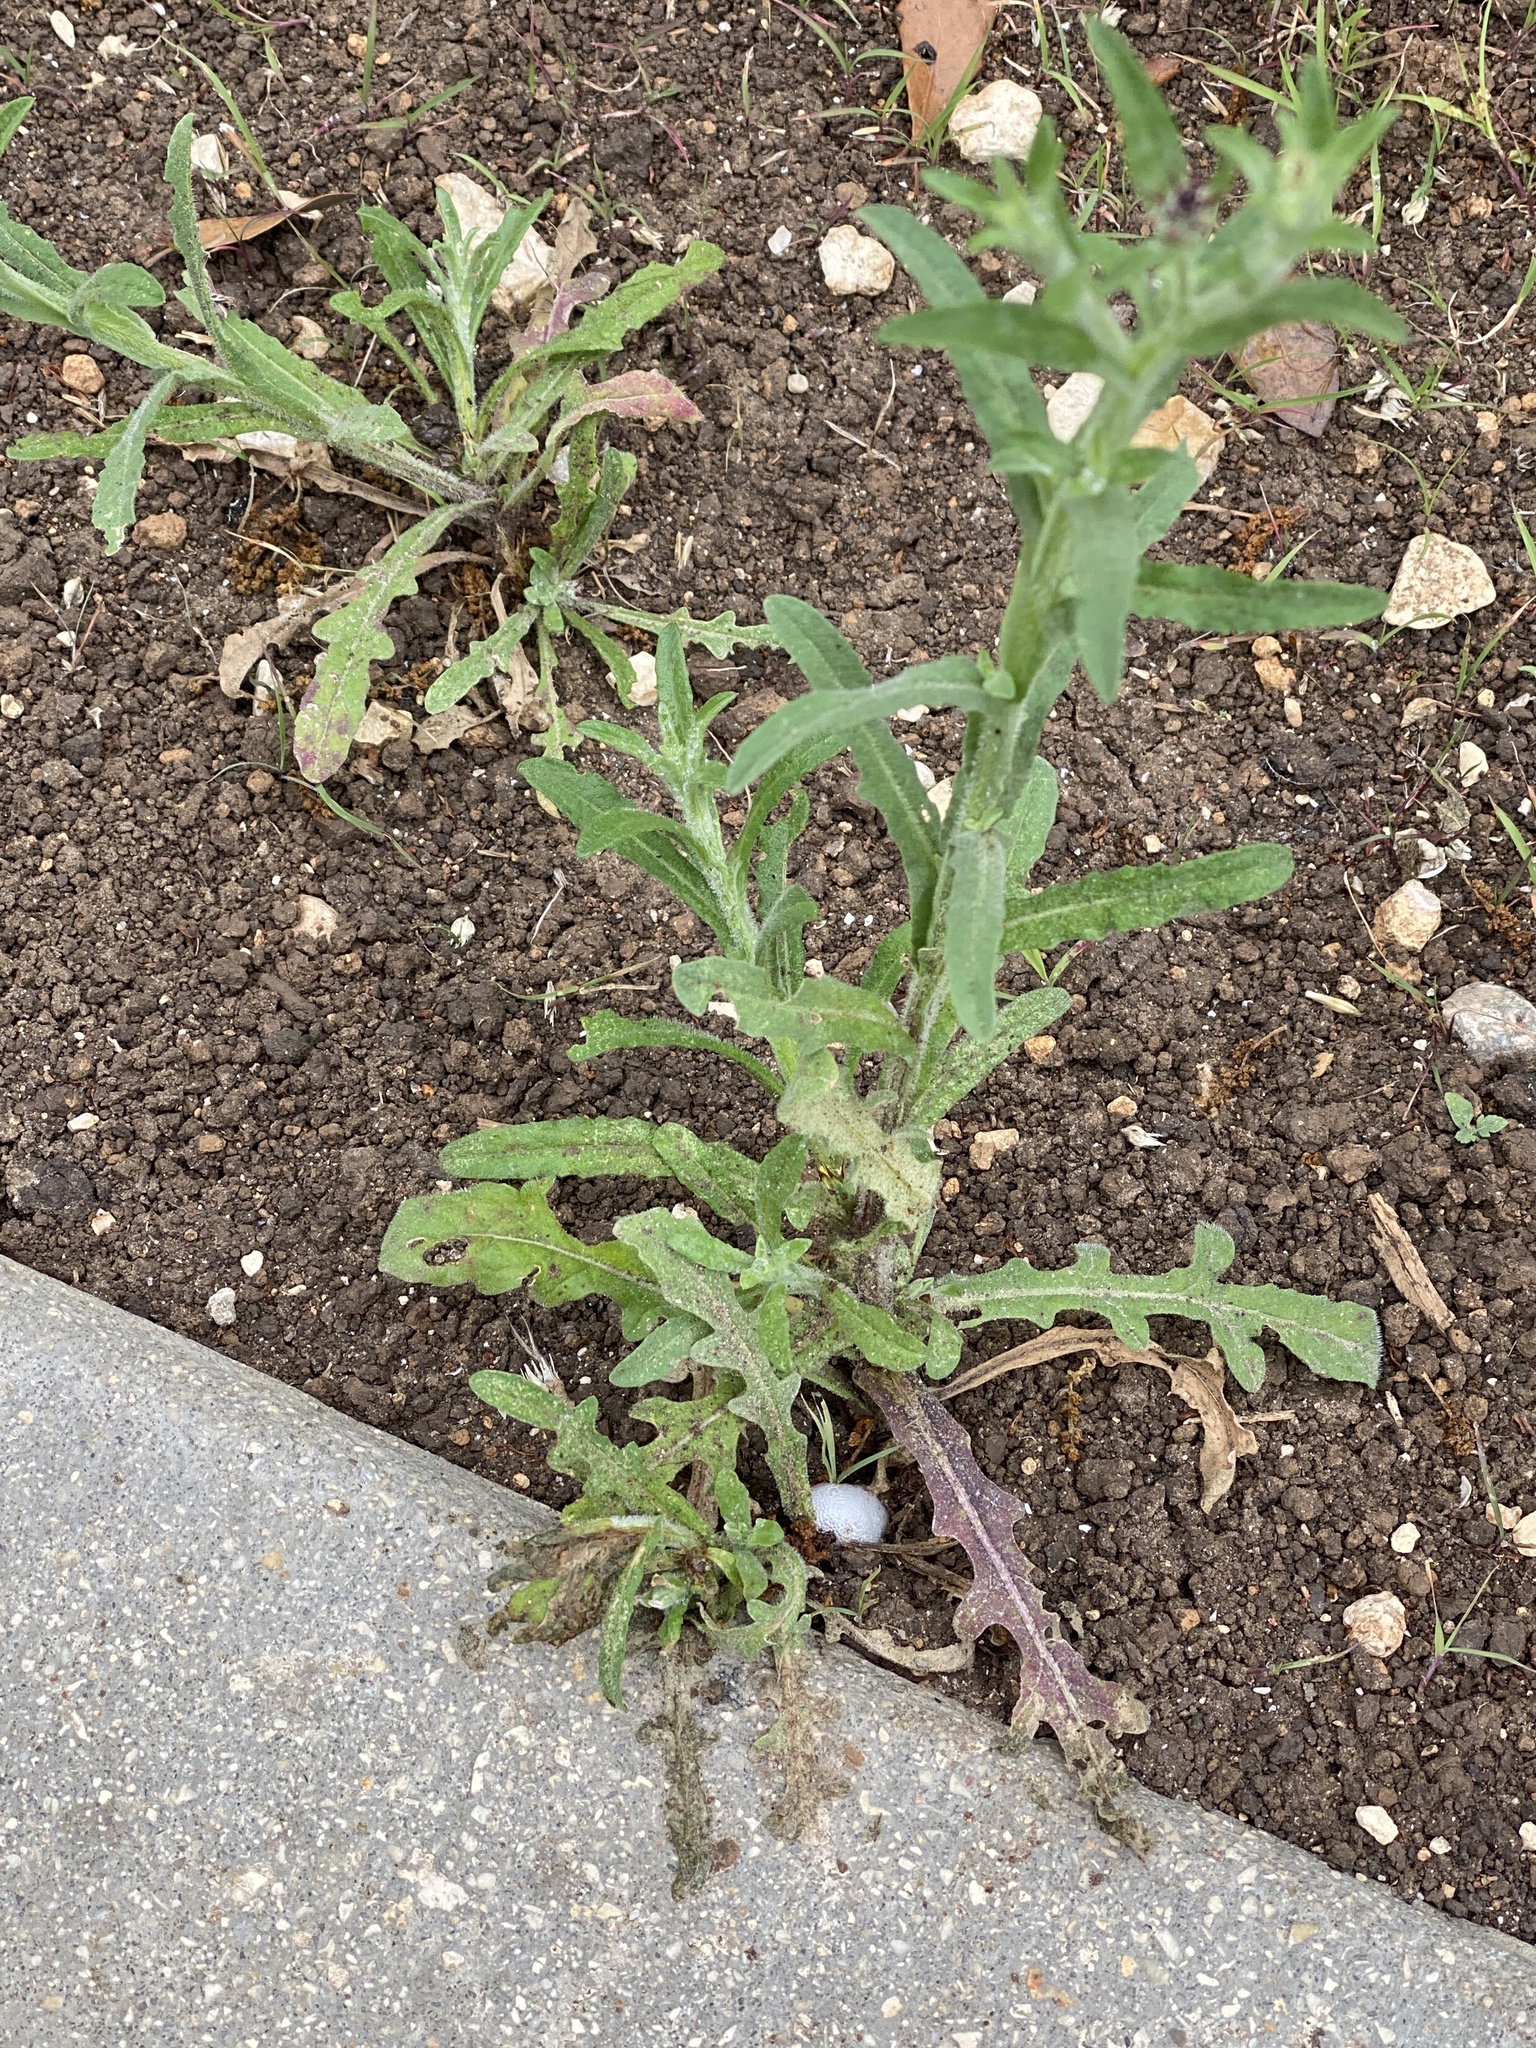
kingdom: Plantae
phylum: Tracheophyta
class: Magnoliopsida
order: Asterales
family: Asteraceae
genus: Centaurea
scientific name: Centaurea melitensis
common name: Maltese star-thistle
